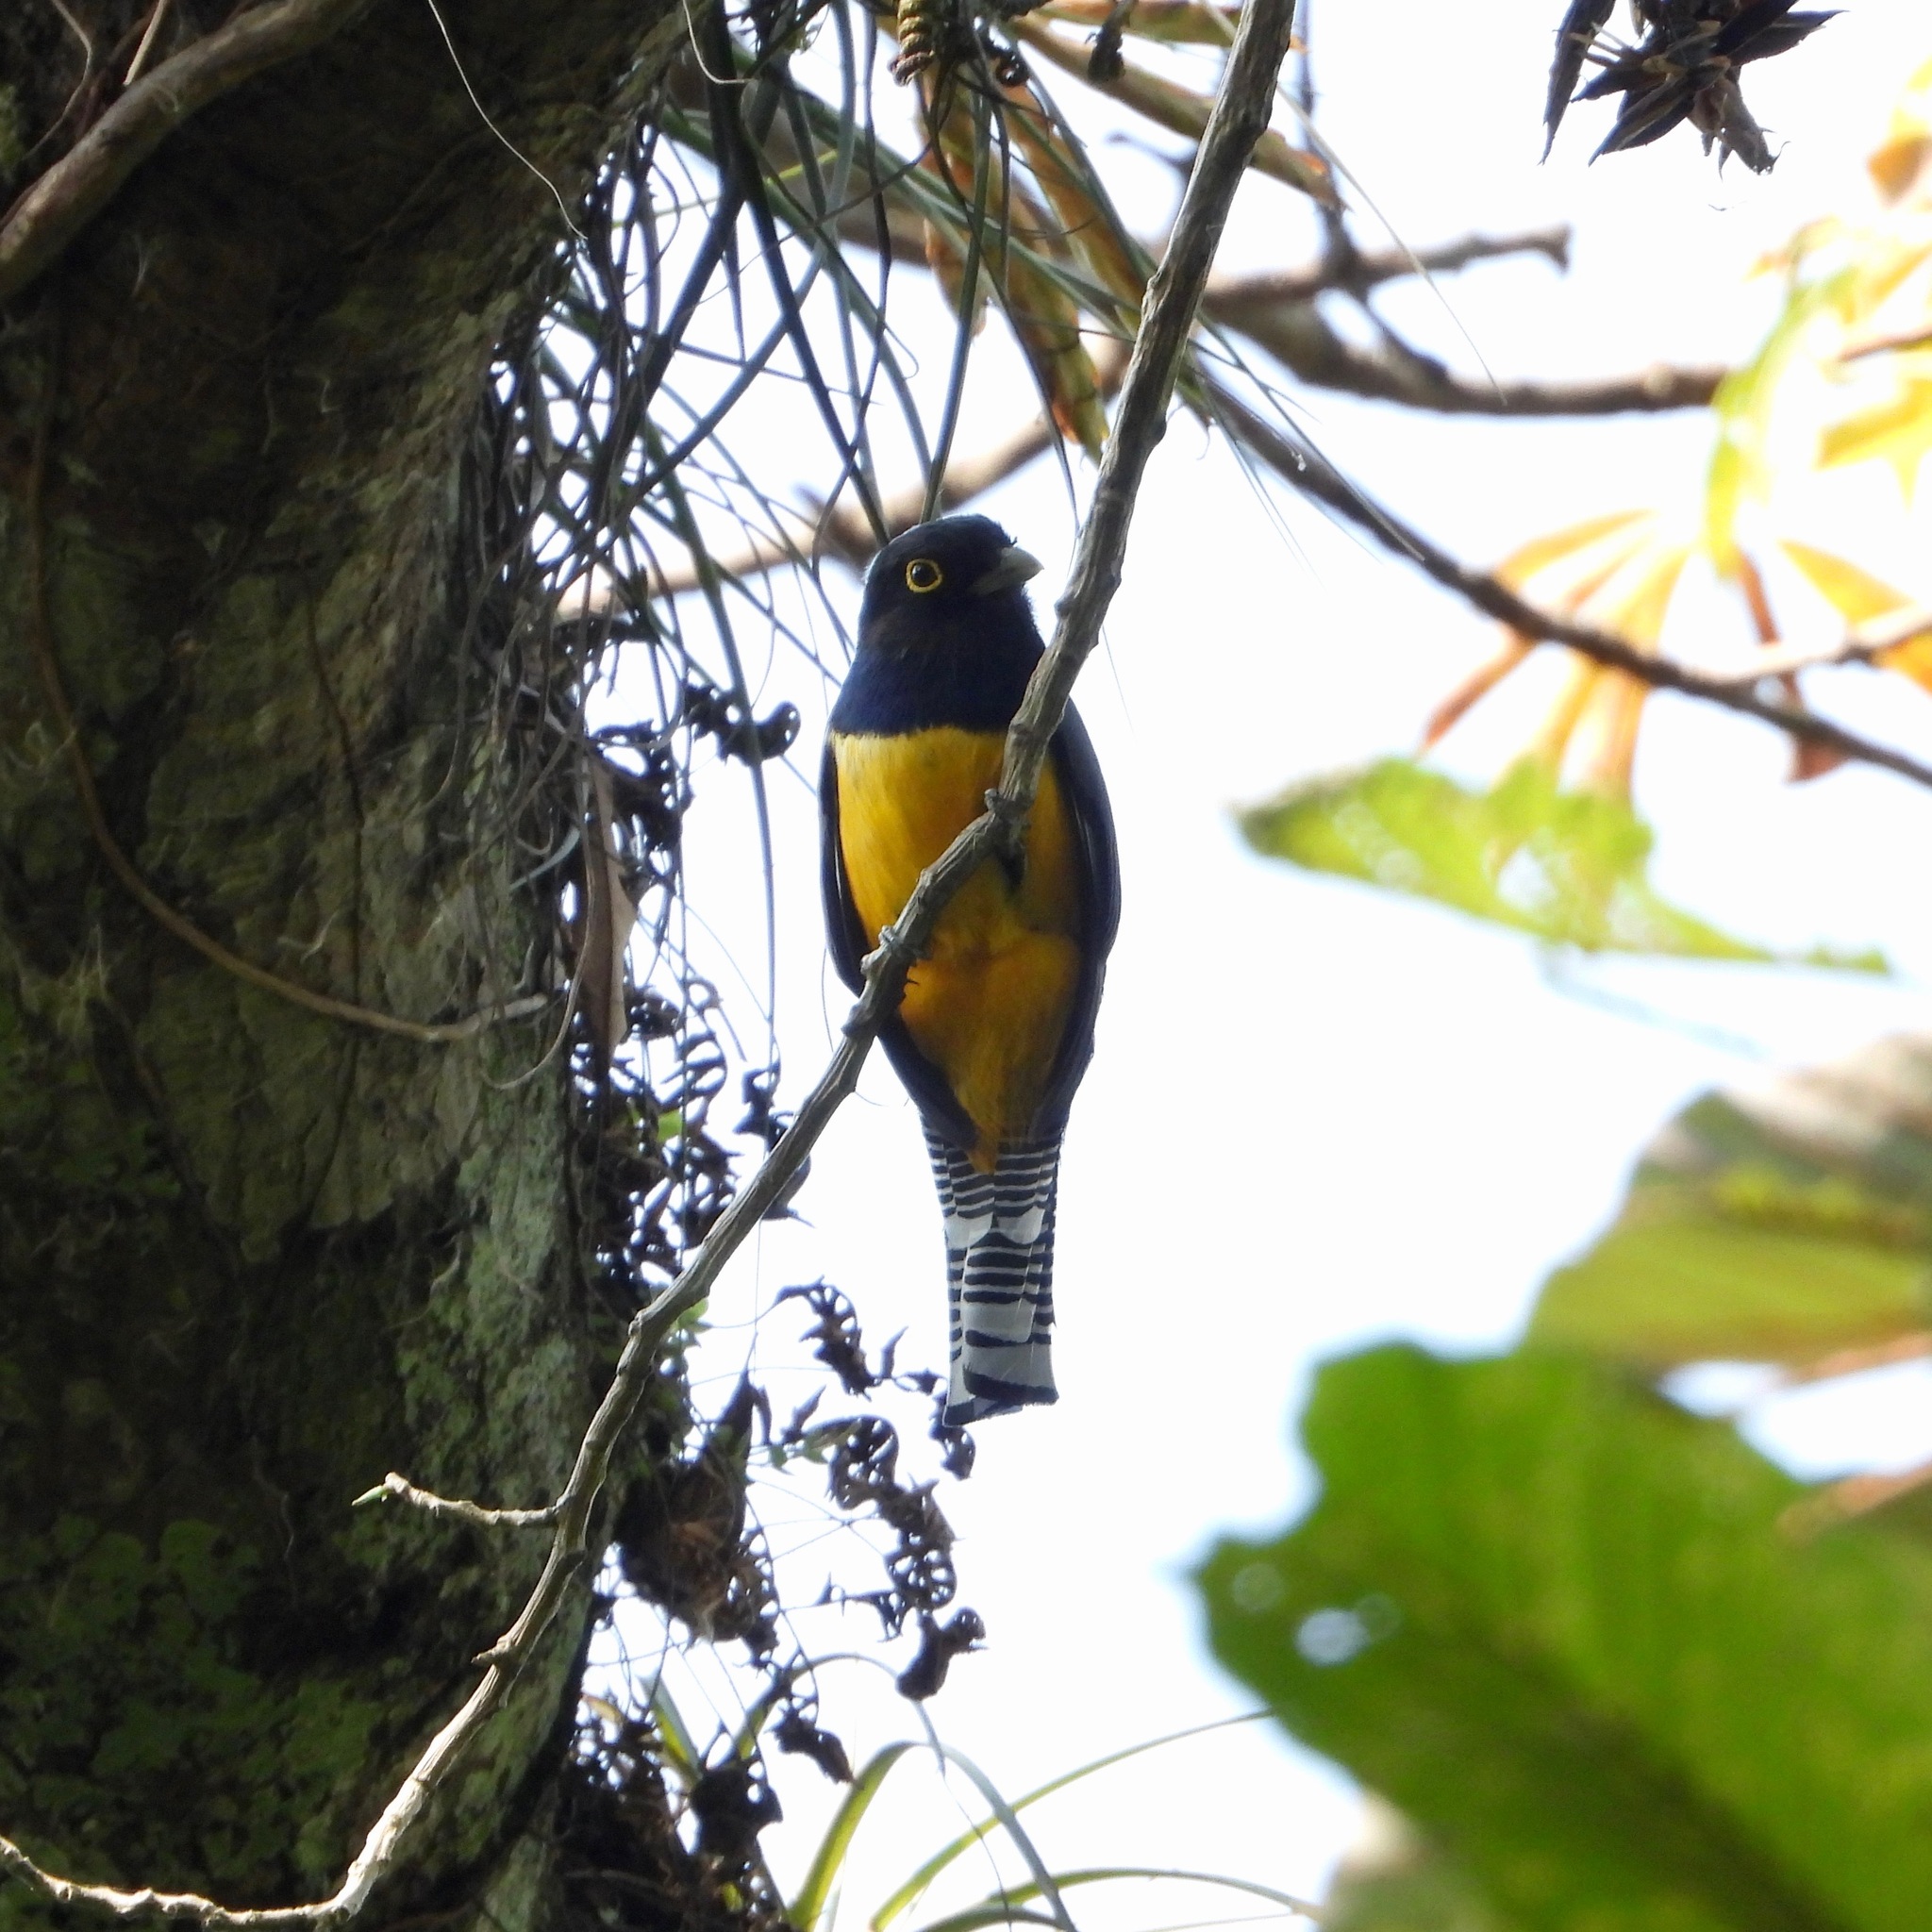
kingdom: Animalia
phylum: Chordata
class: Aves
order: Trogoniformes
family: Trogonidae
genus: Trogon
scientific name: Trogon caligatus
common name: Gartered trogon
